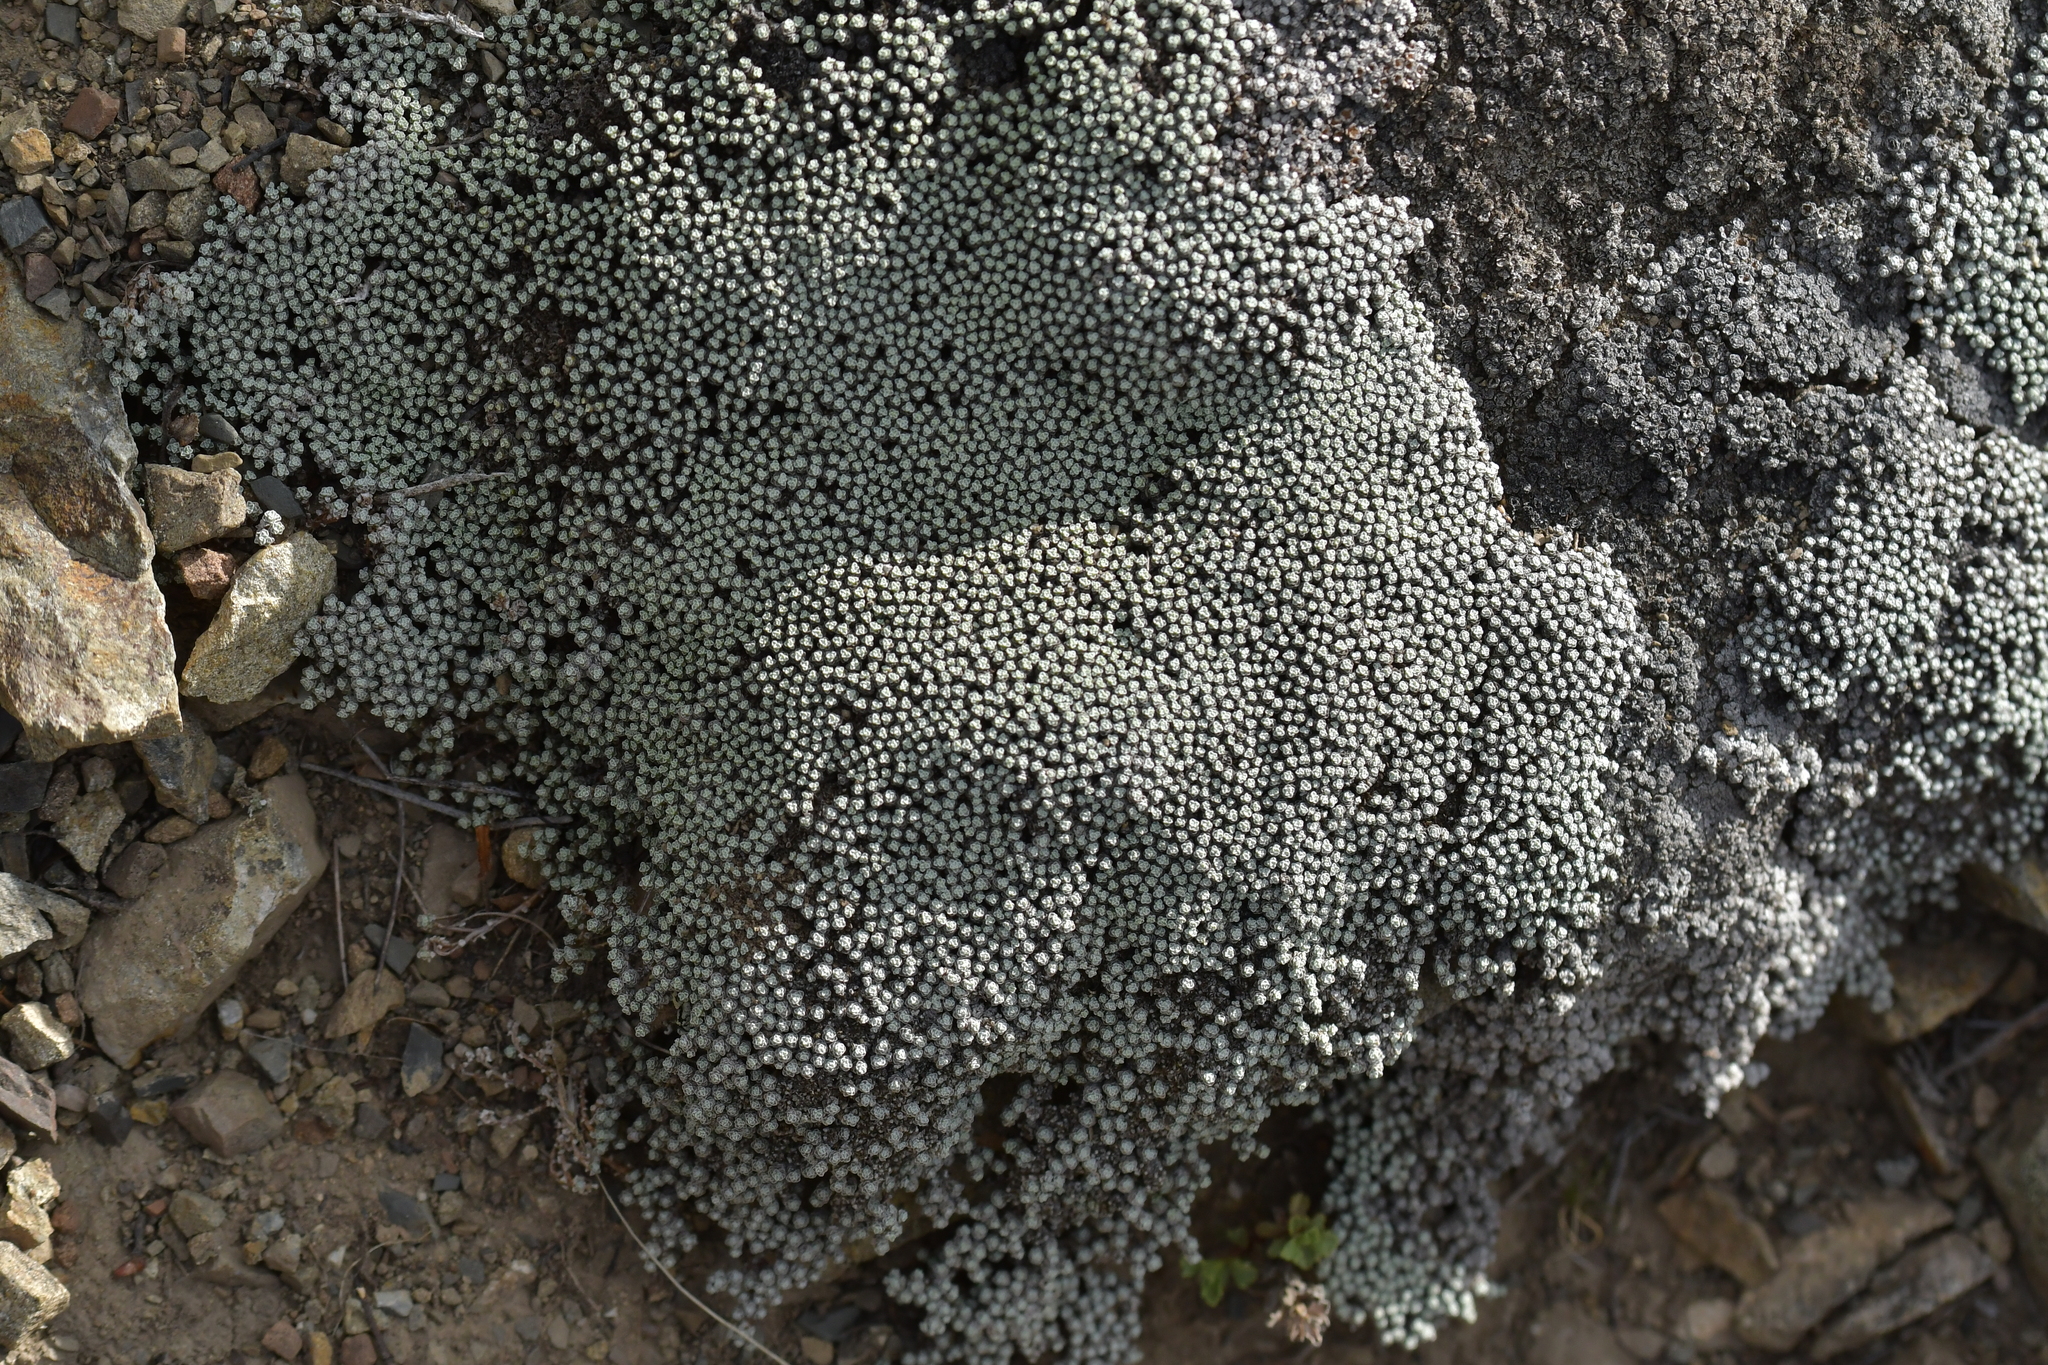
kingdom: Plantae
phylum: Tracheophyta
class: Magnoliopsida
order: Asterales
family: Asteraceae
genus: Raoulia
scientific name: Raoulia australis
